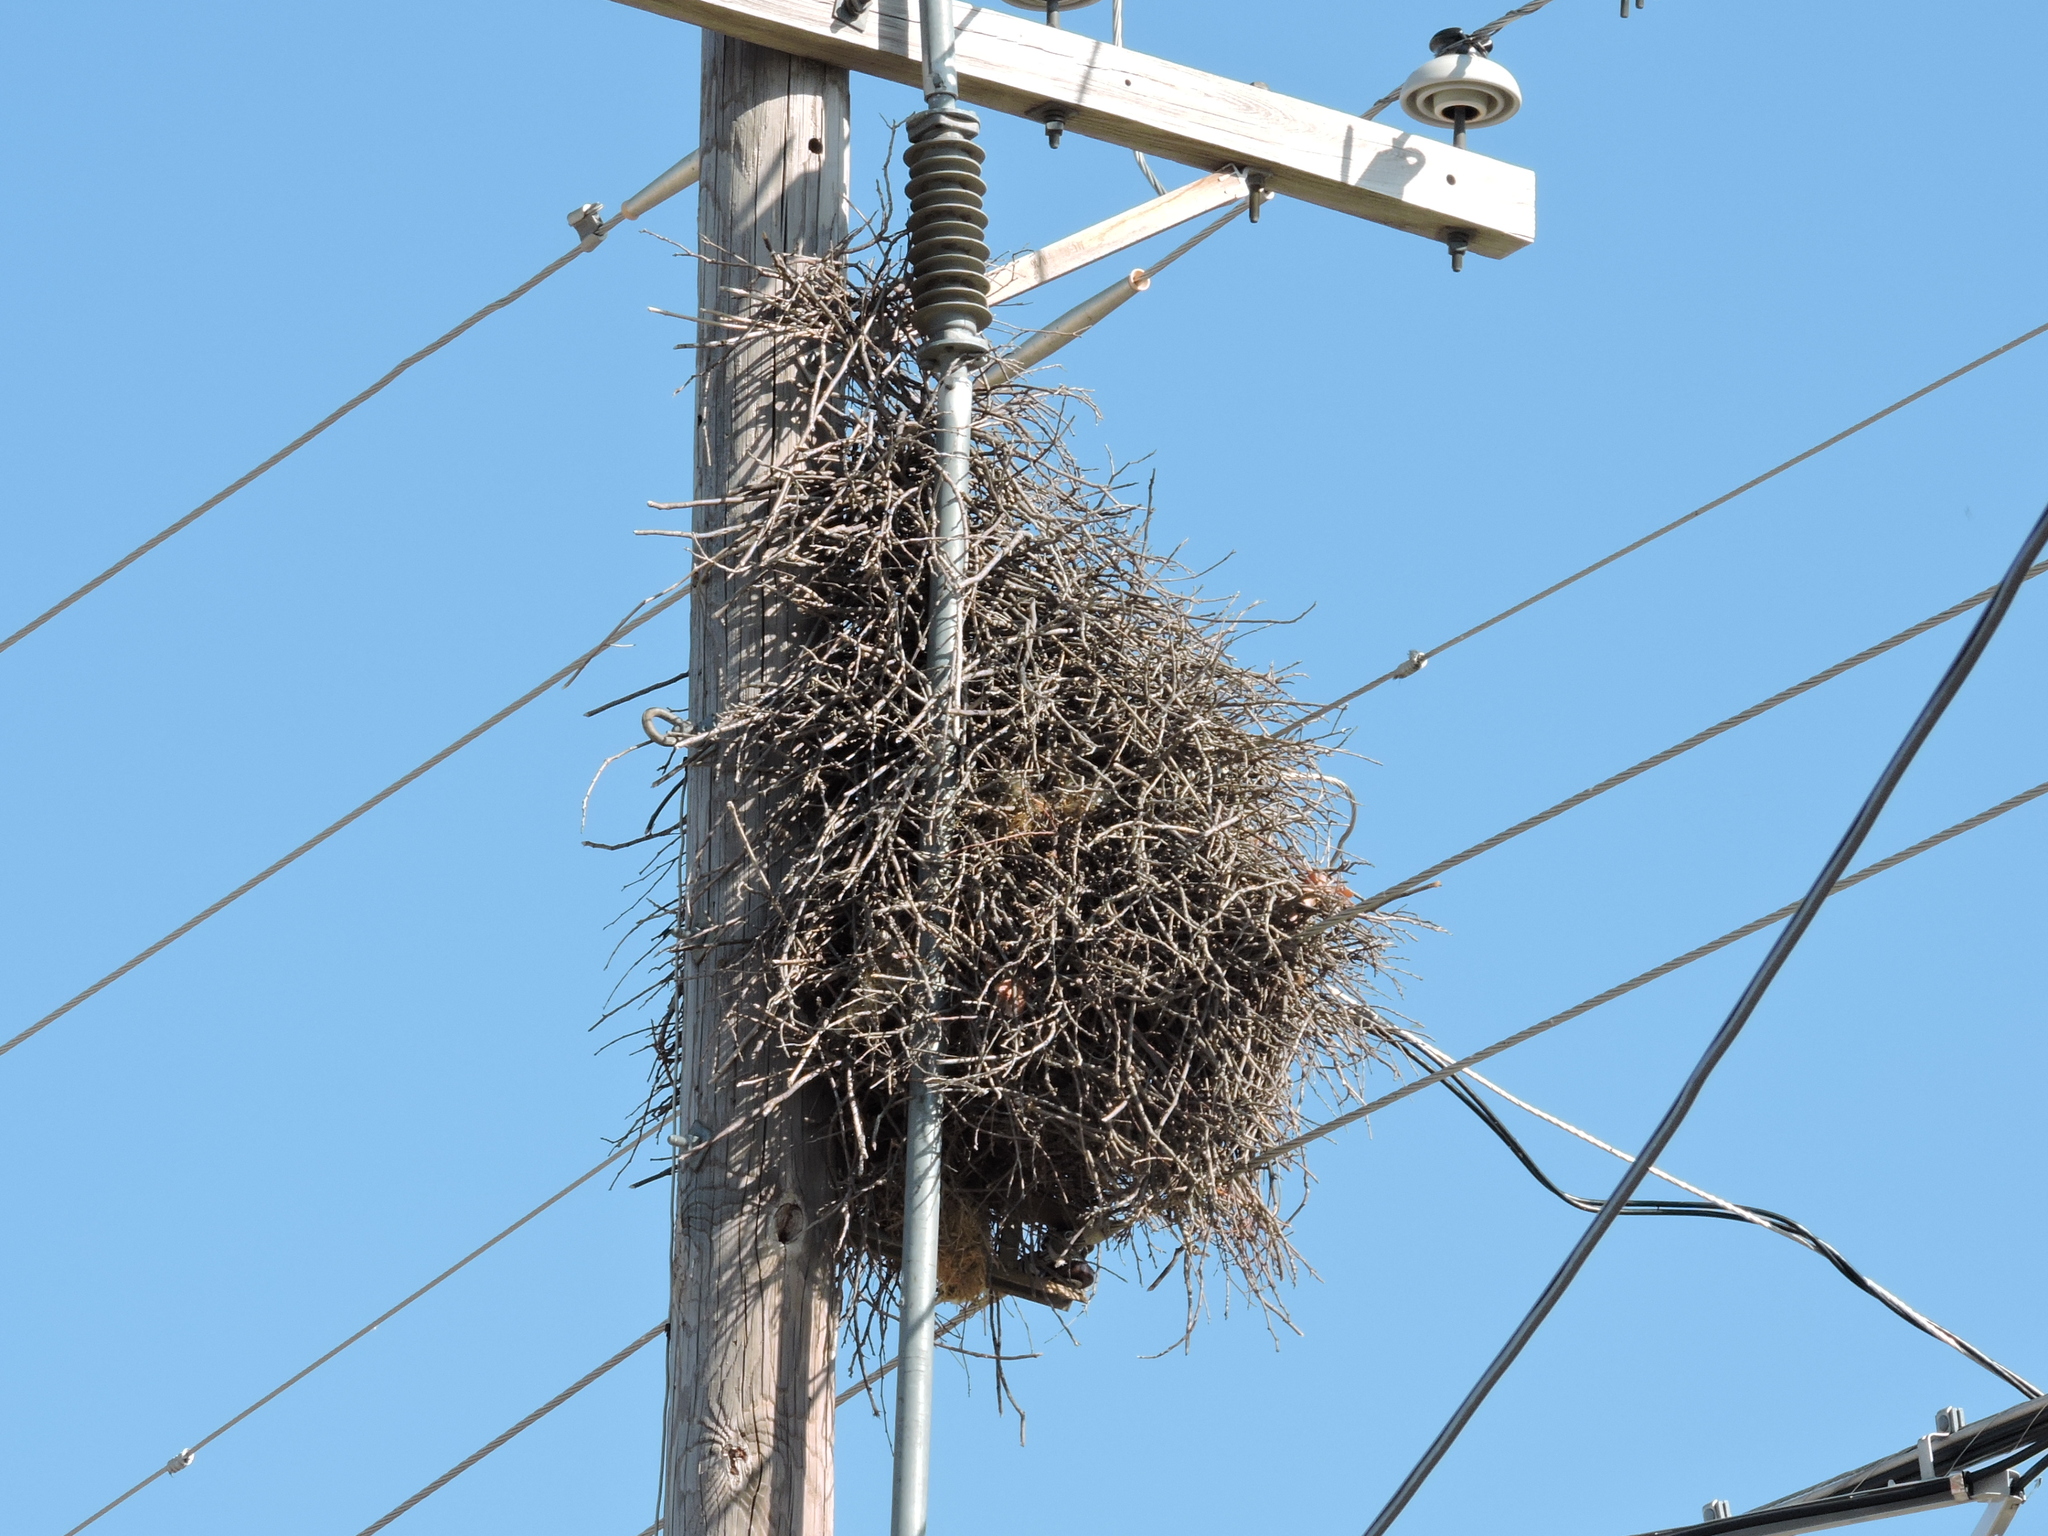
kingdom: Animalia
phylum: Chordata
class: Aves
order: Psittaciformes
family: Psittacidae
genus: Myiopsitta
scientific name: Myiopsitta monachus
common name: Monk parakeet
